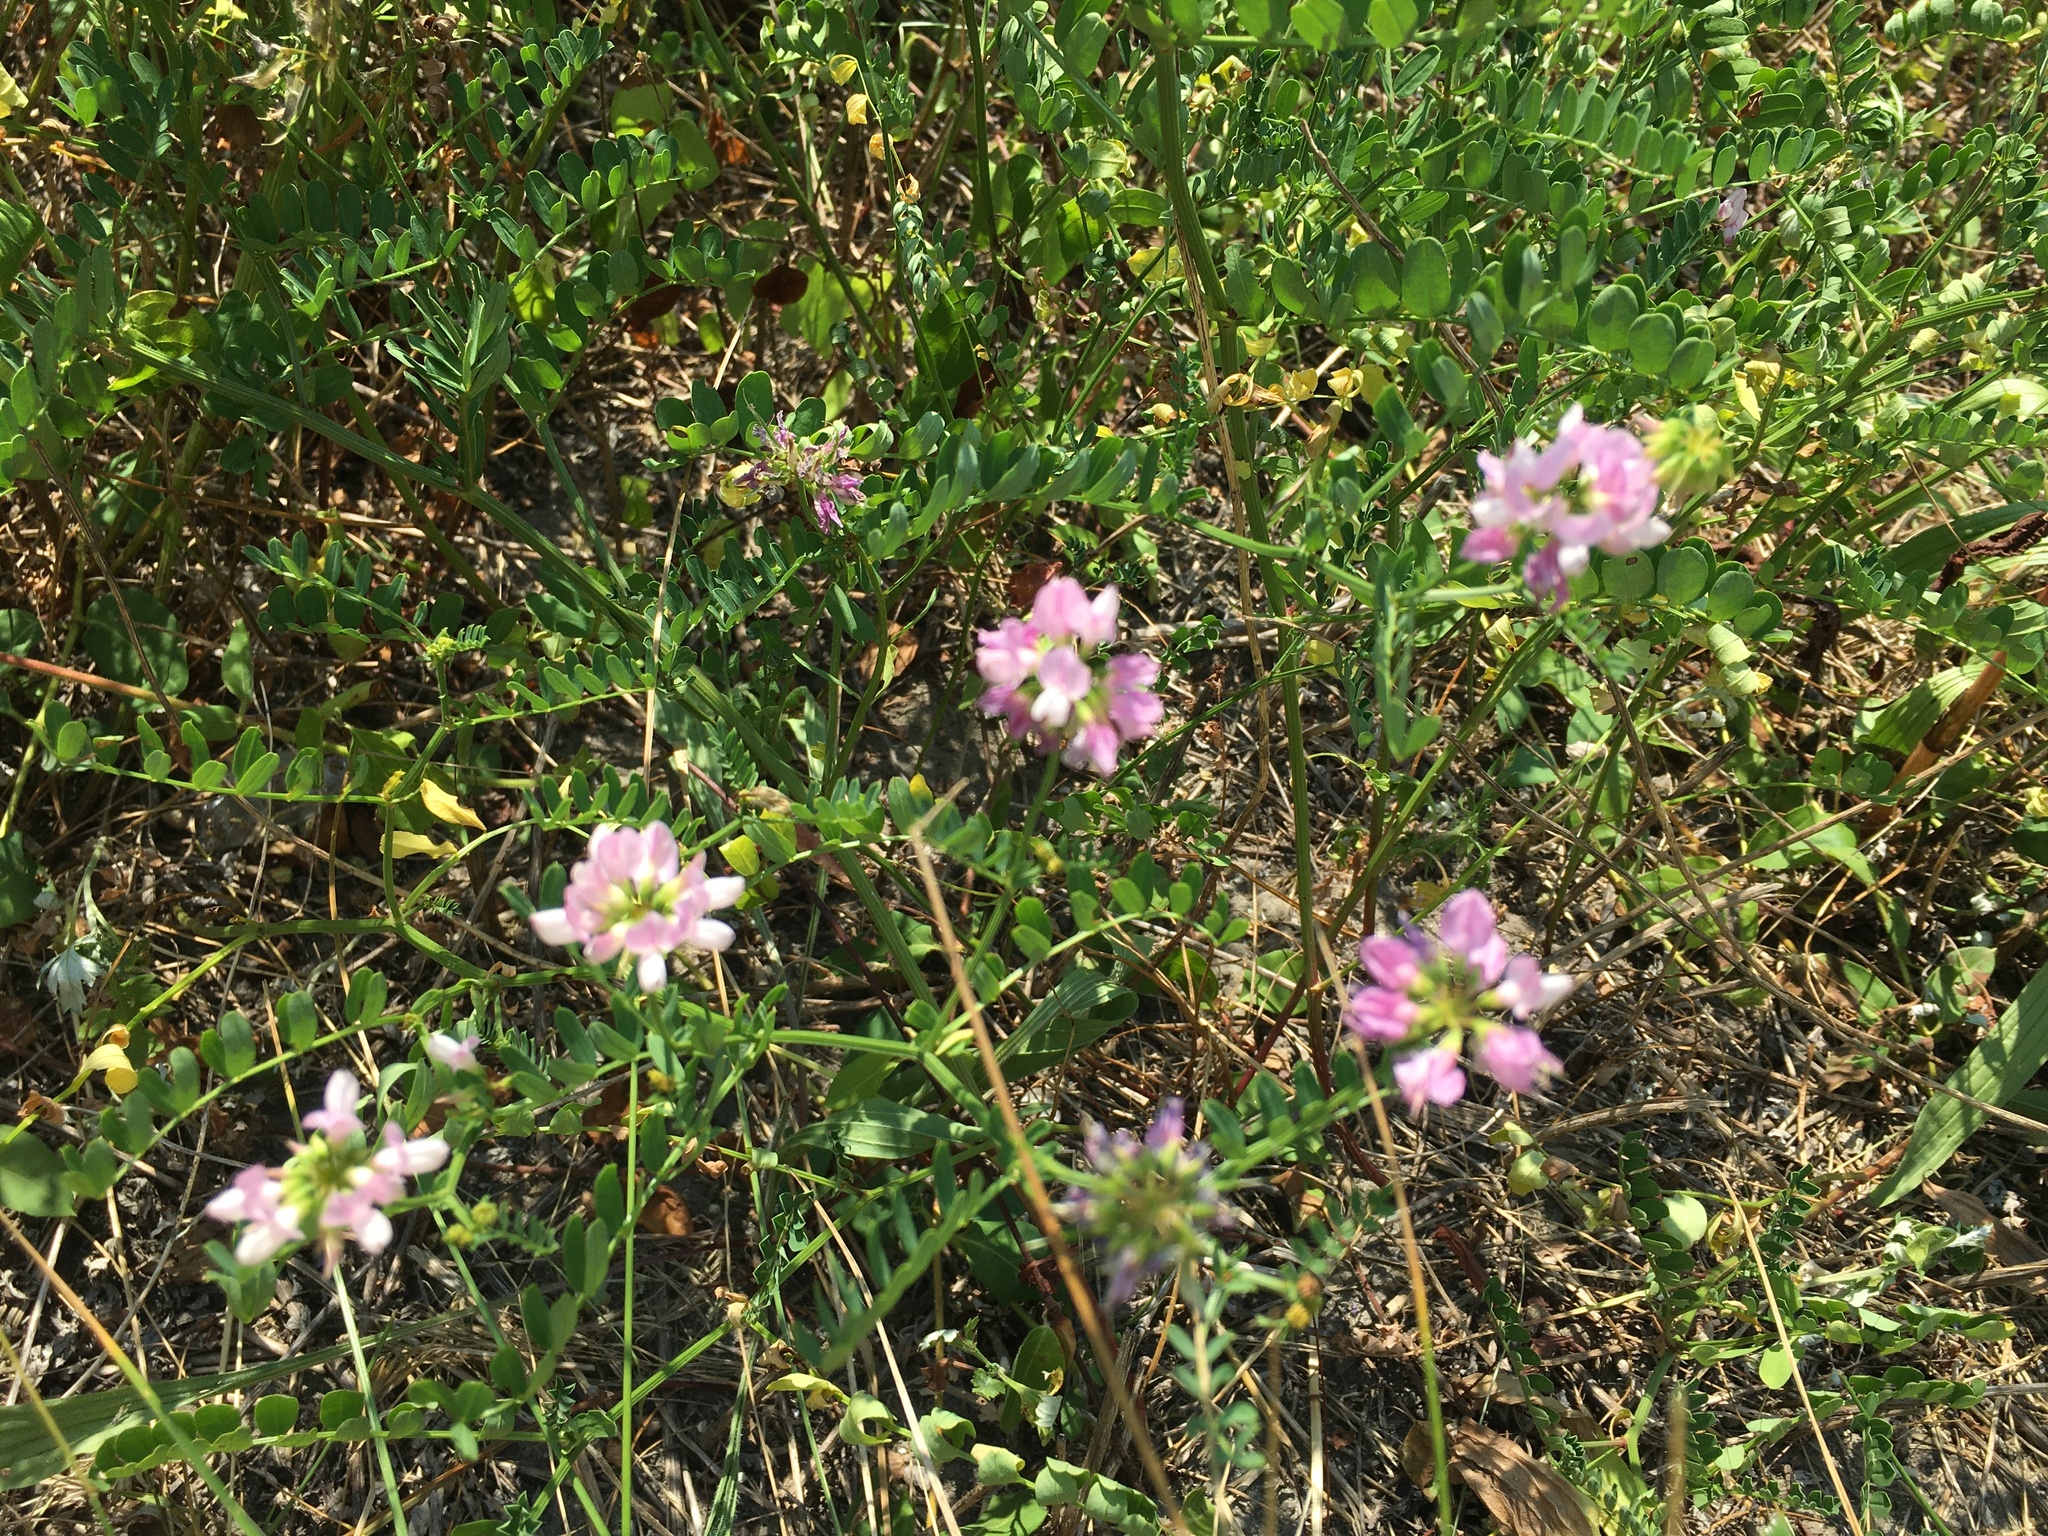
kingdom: Plantae
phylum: Tracheophyta
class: Magnoliopsida
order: Fabales
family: Fabaceae
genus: Coronilla
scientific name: Coronilla varia
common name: Crownvetch
